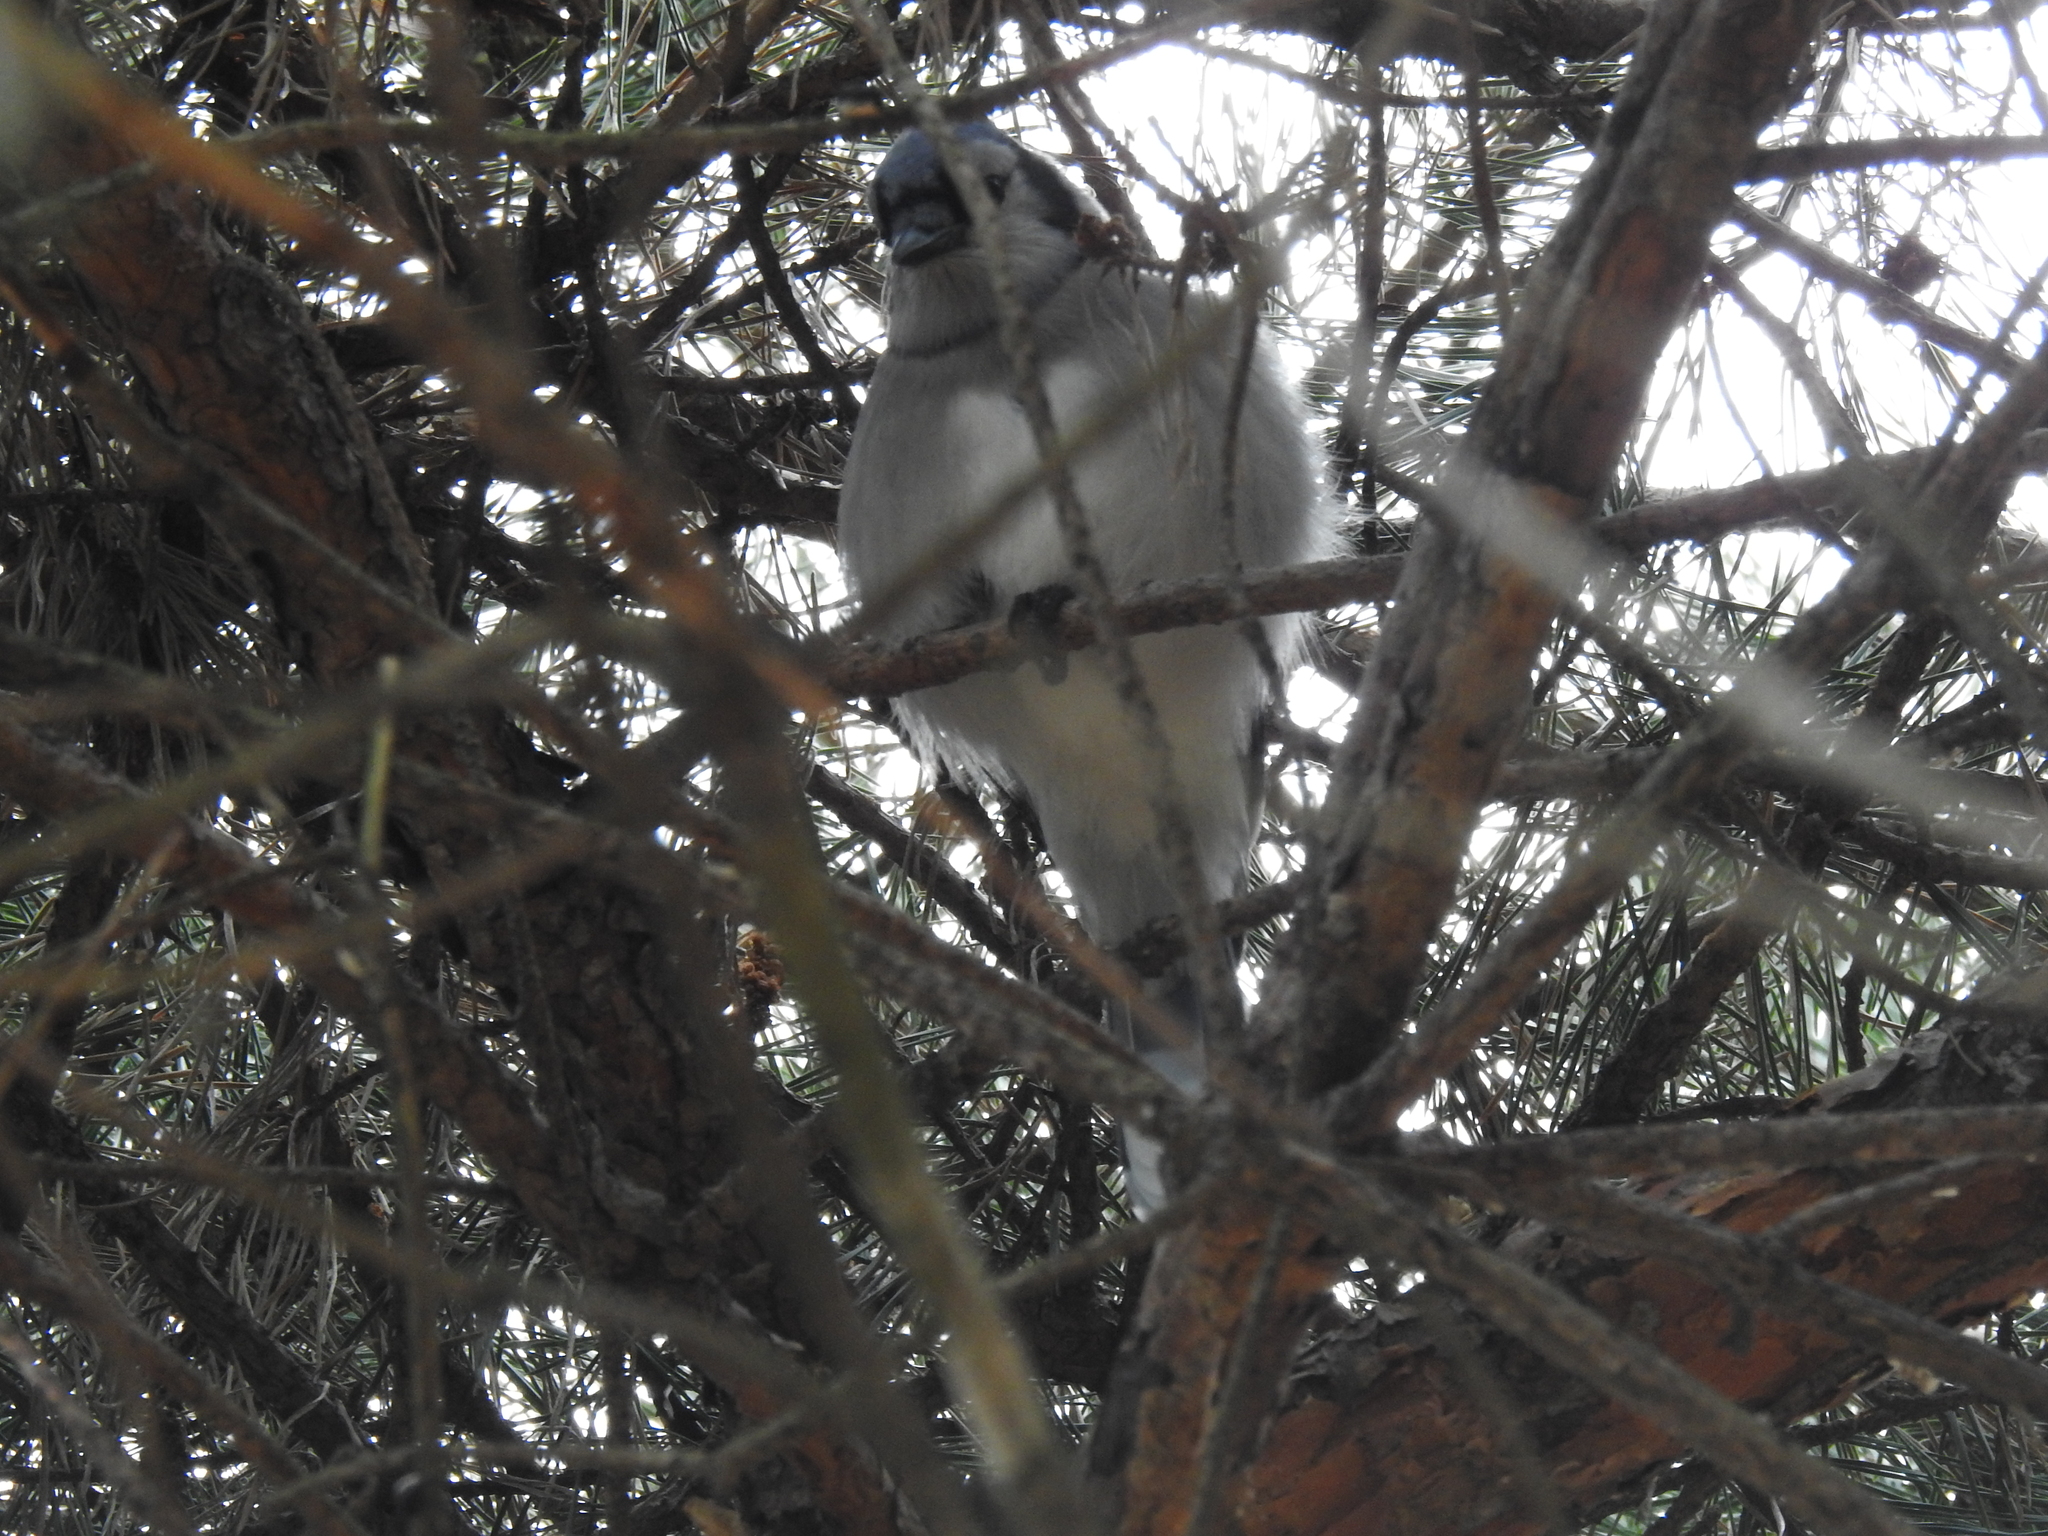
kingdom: Animalia
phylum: Chordata
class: Aves
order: Passeriformes
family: Corvidae
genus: Cyanocitta
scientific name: Cyanocitta cristata
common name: Blue jay
